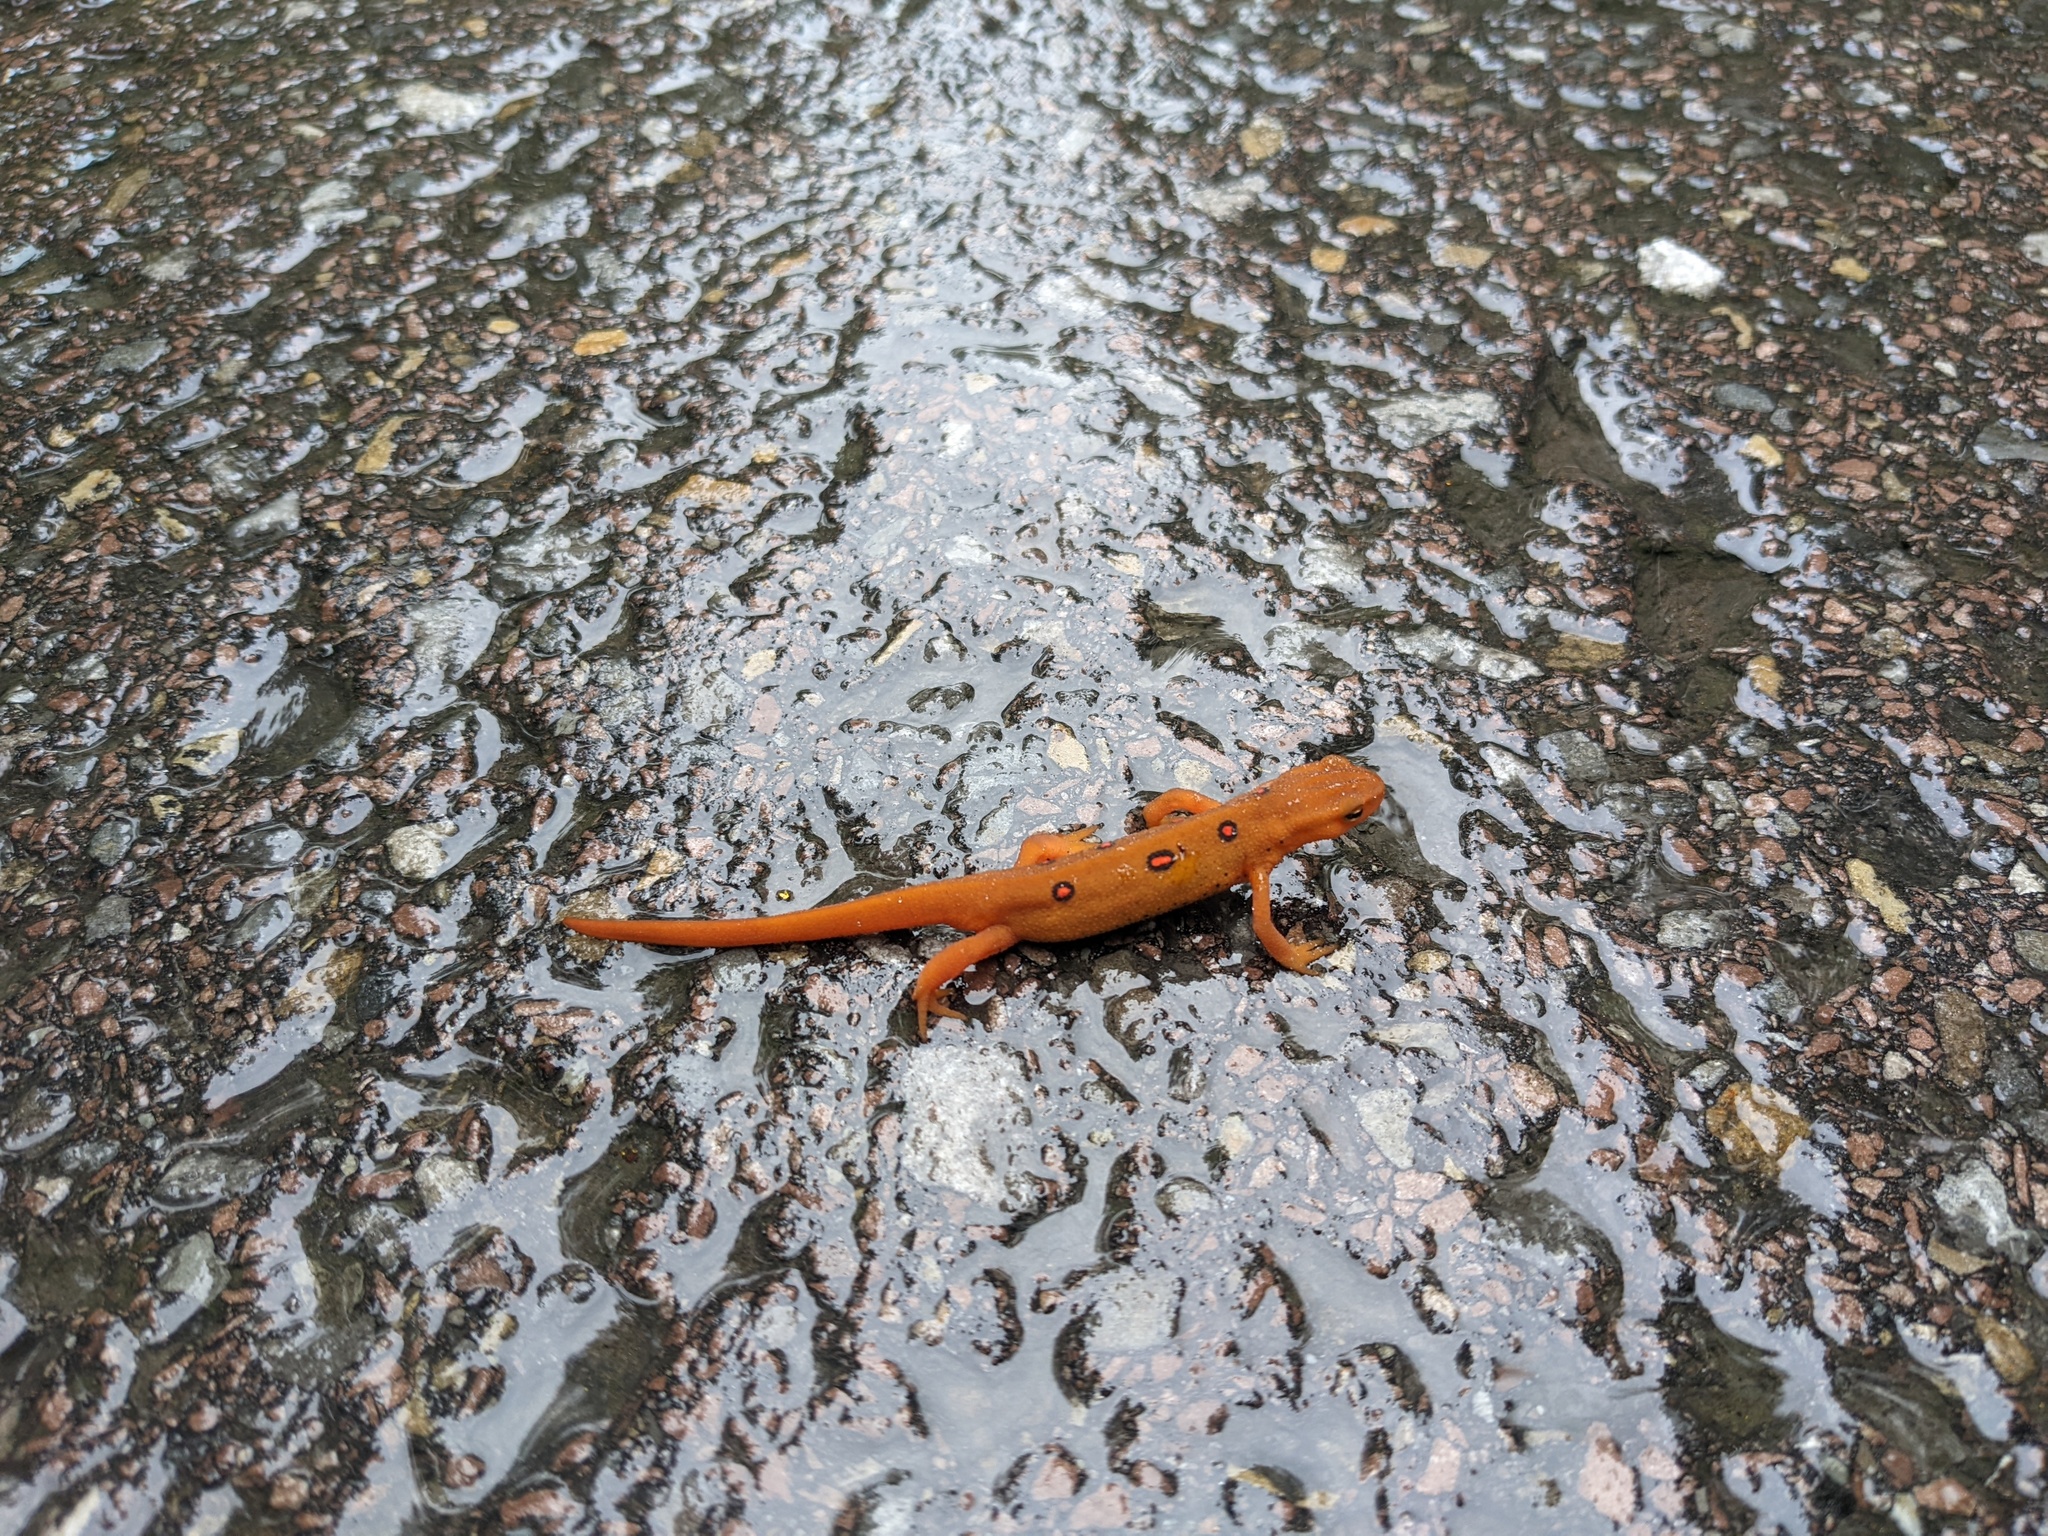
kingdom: Animalia
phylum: Chordata
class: Amphibia
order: Caudata
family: Salamandridae
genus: Notophthalmus
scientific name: Notophthalmus viridescens
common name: Eastern newt
